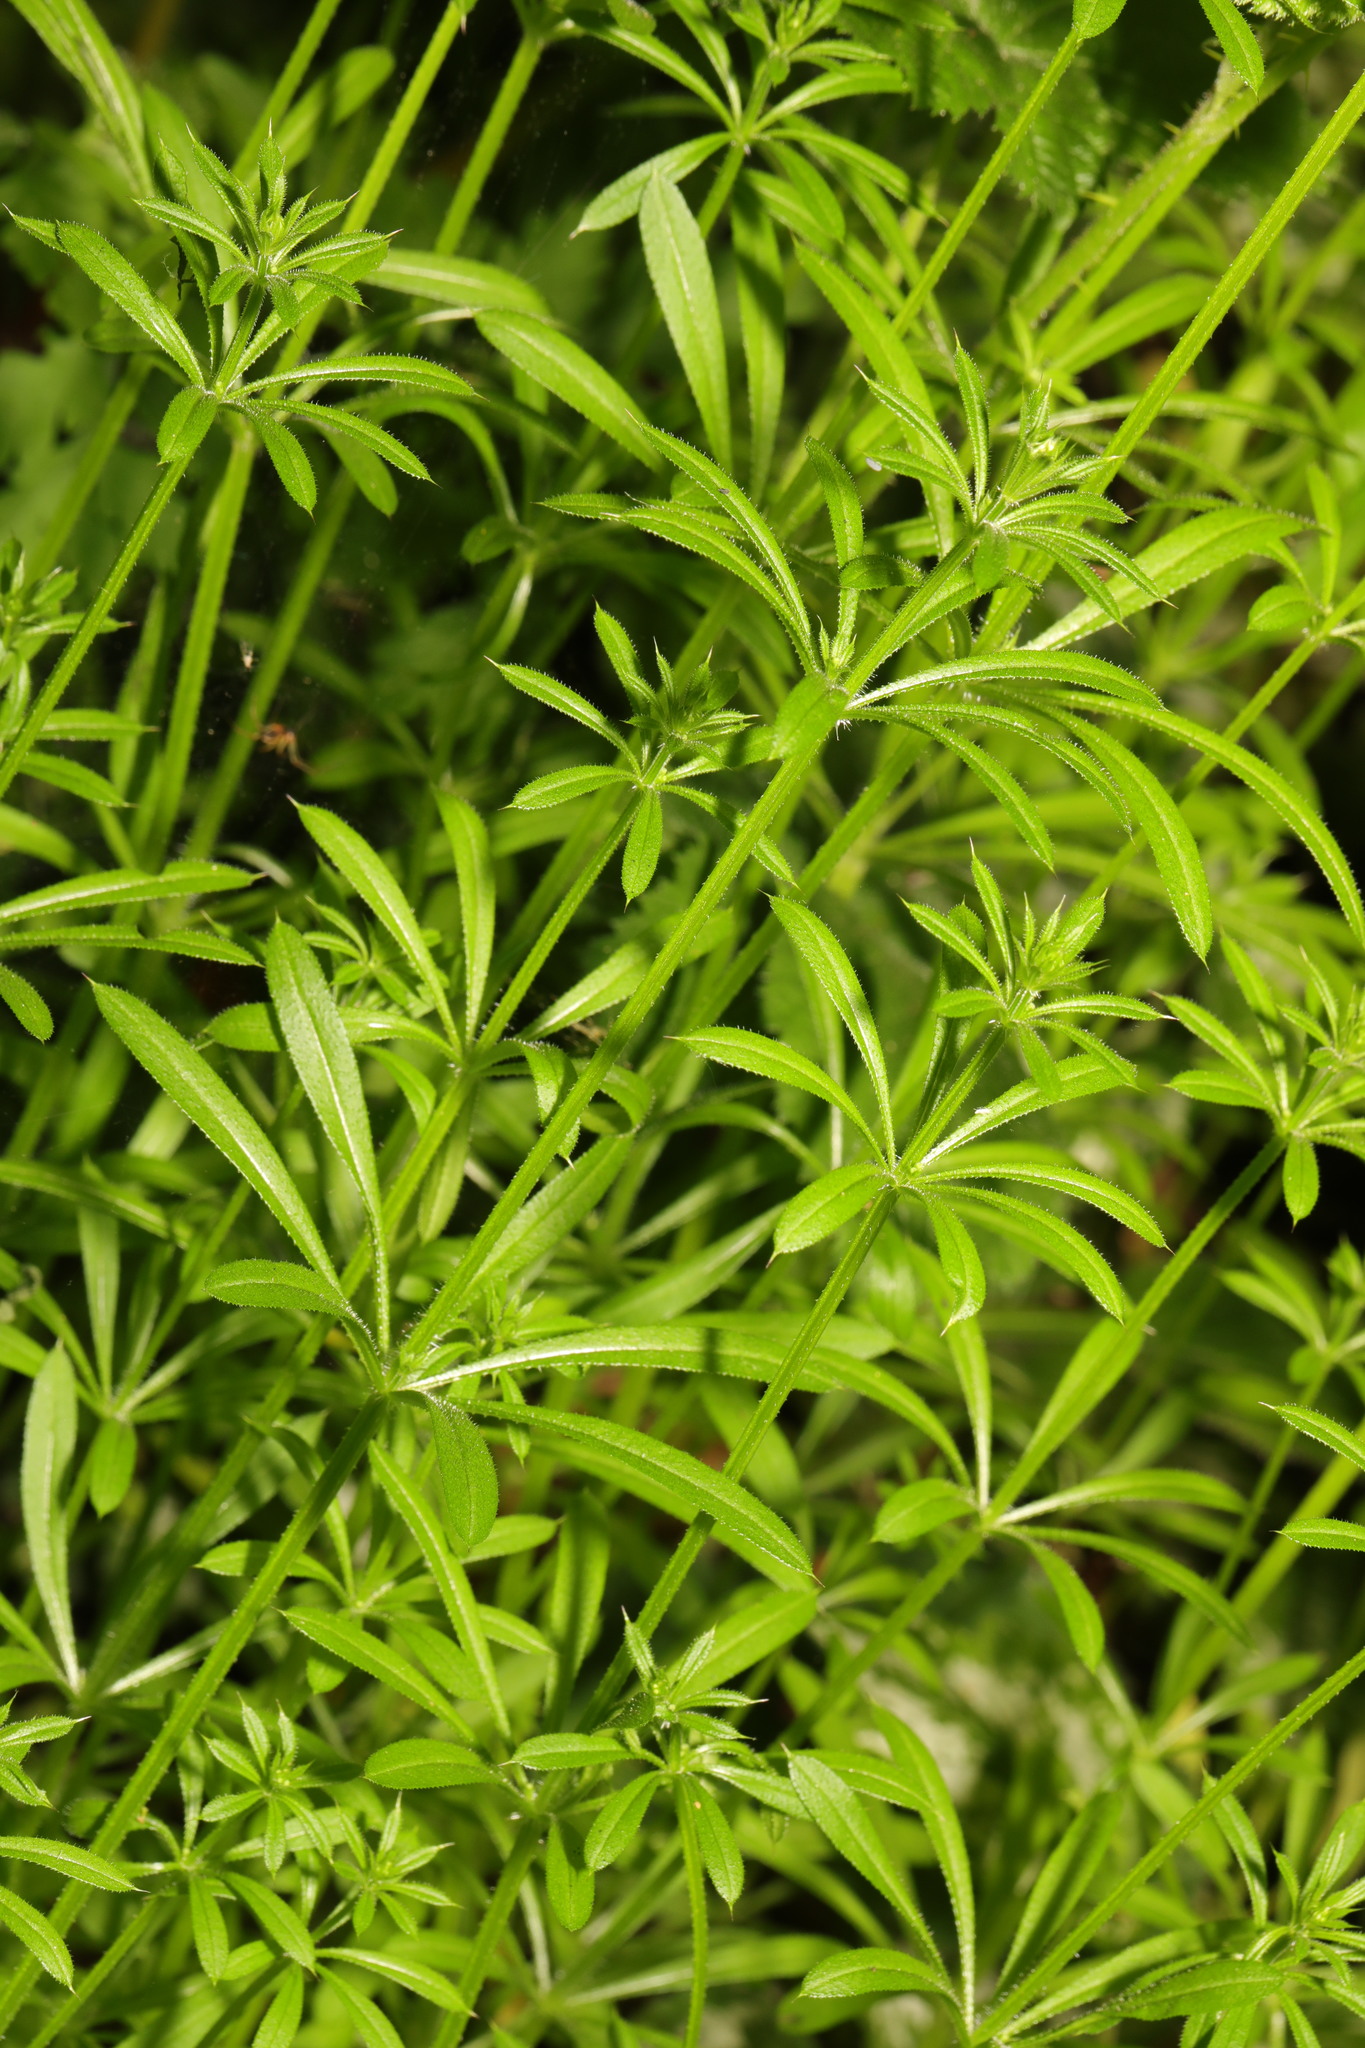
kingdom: Plantae
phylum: Tracheophyta
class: Magnoliopsida
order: Gentianales
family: Rubiaceae
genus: Galium
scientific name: Galium aparine
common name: Cleavers
